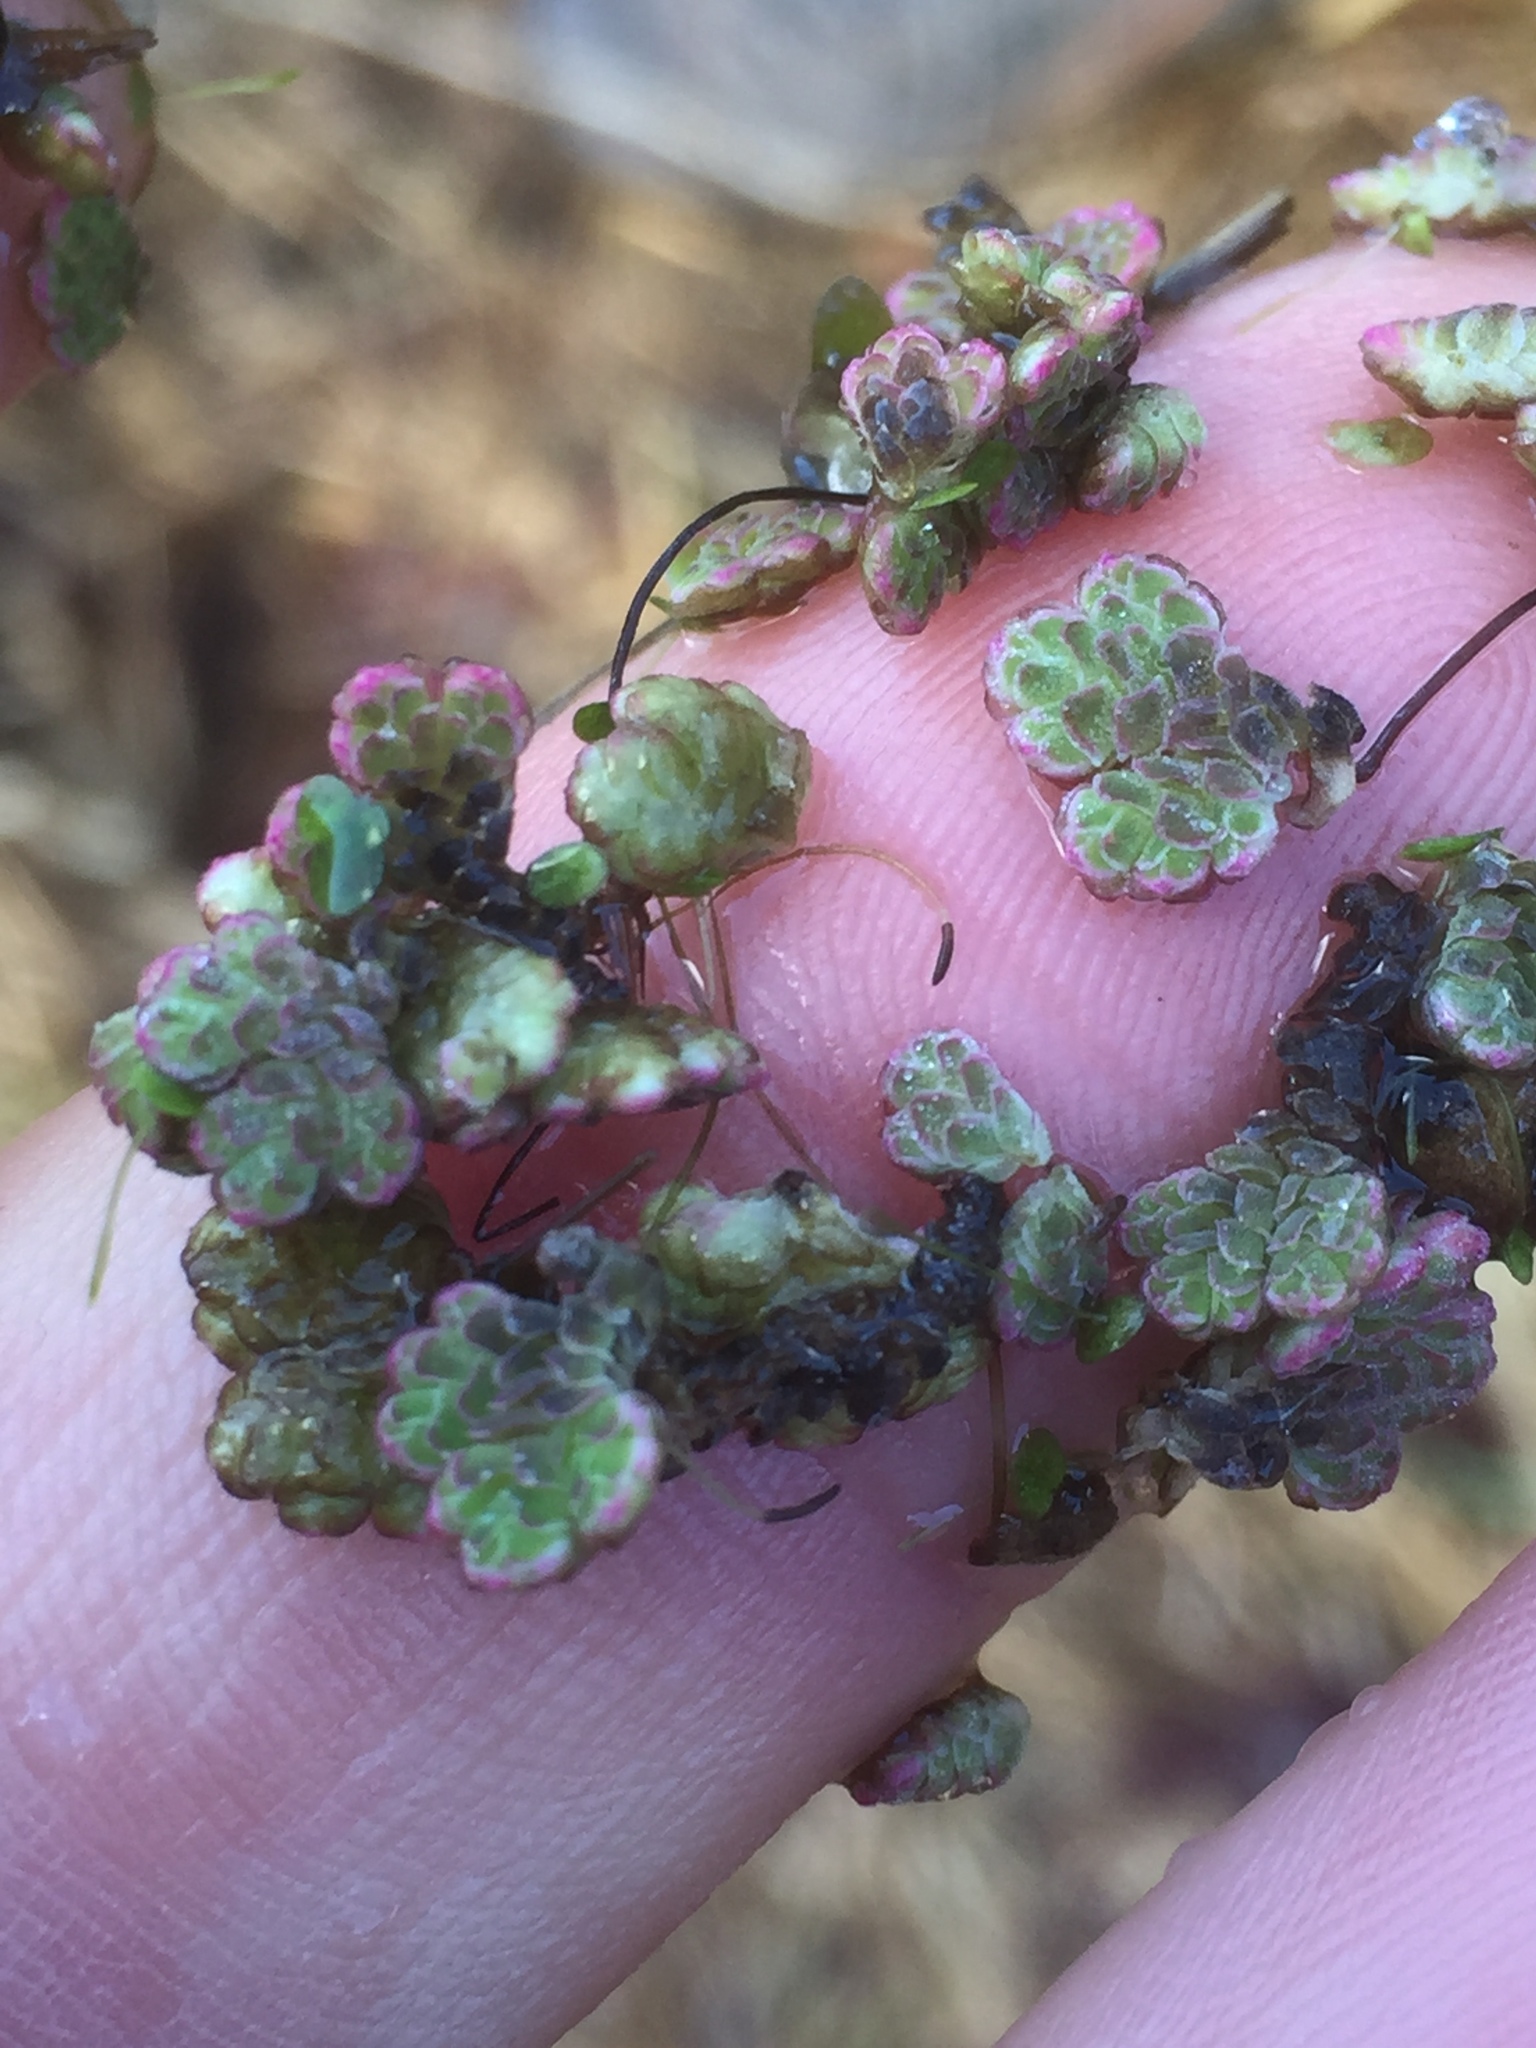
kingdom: Plantae
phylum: Tracheophyta
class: Polypodiopsida
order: Salviniales
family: Salviniaceae
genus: Azolla
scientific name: Azolla filiculoides
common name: Water fern
